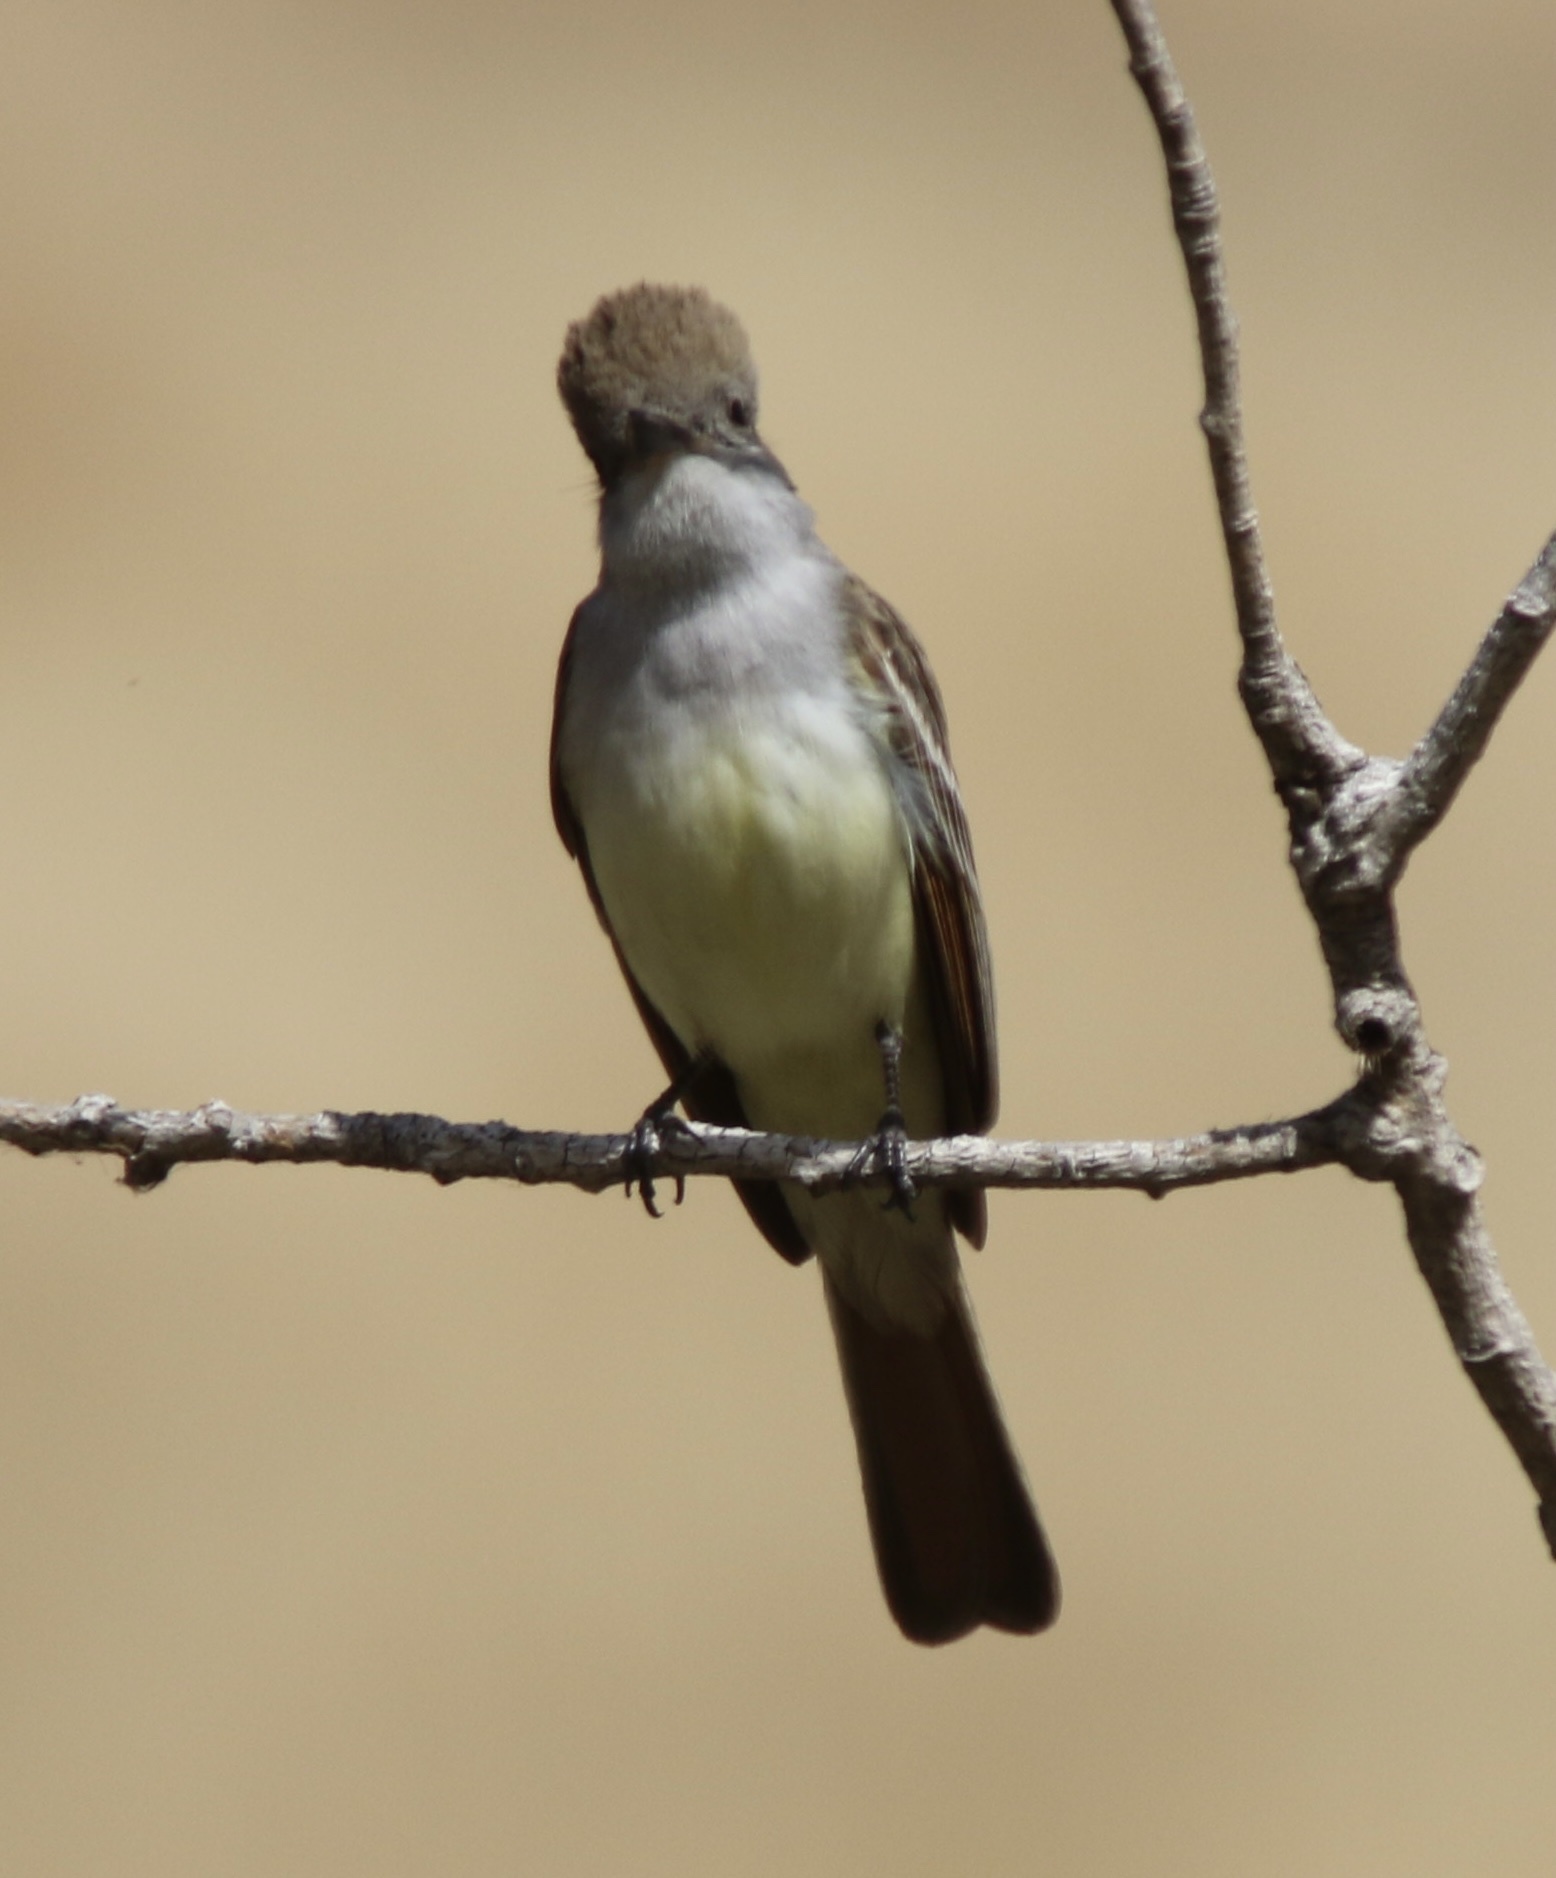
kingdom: Animalia
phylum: Chordata
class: Aves
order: Passeriformes
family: Tyrannidae
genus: Myiarchus
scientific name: Myiarchus cinerascens
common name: Ash-throated flycatcher
